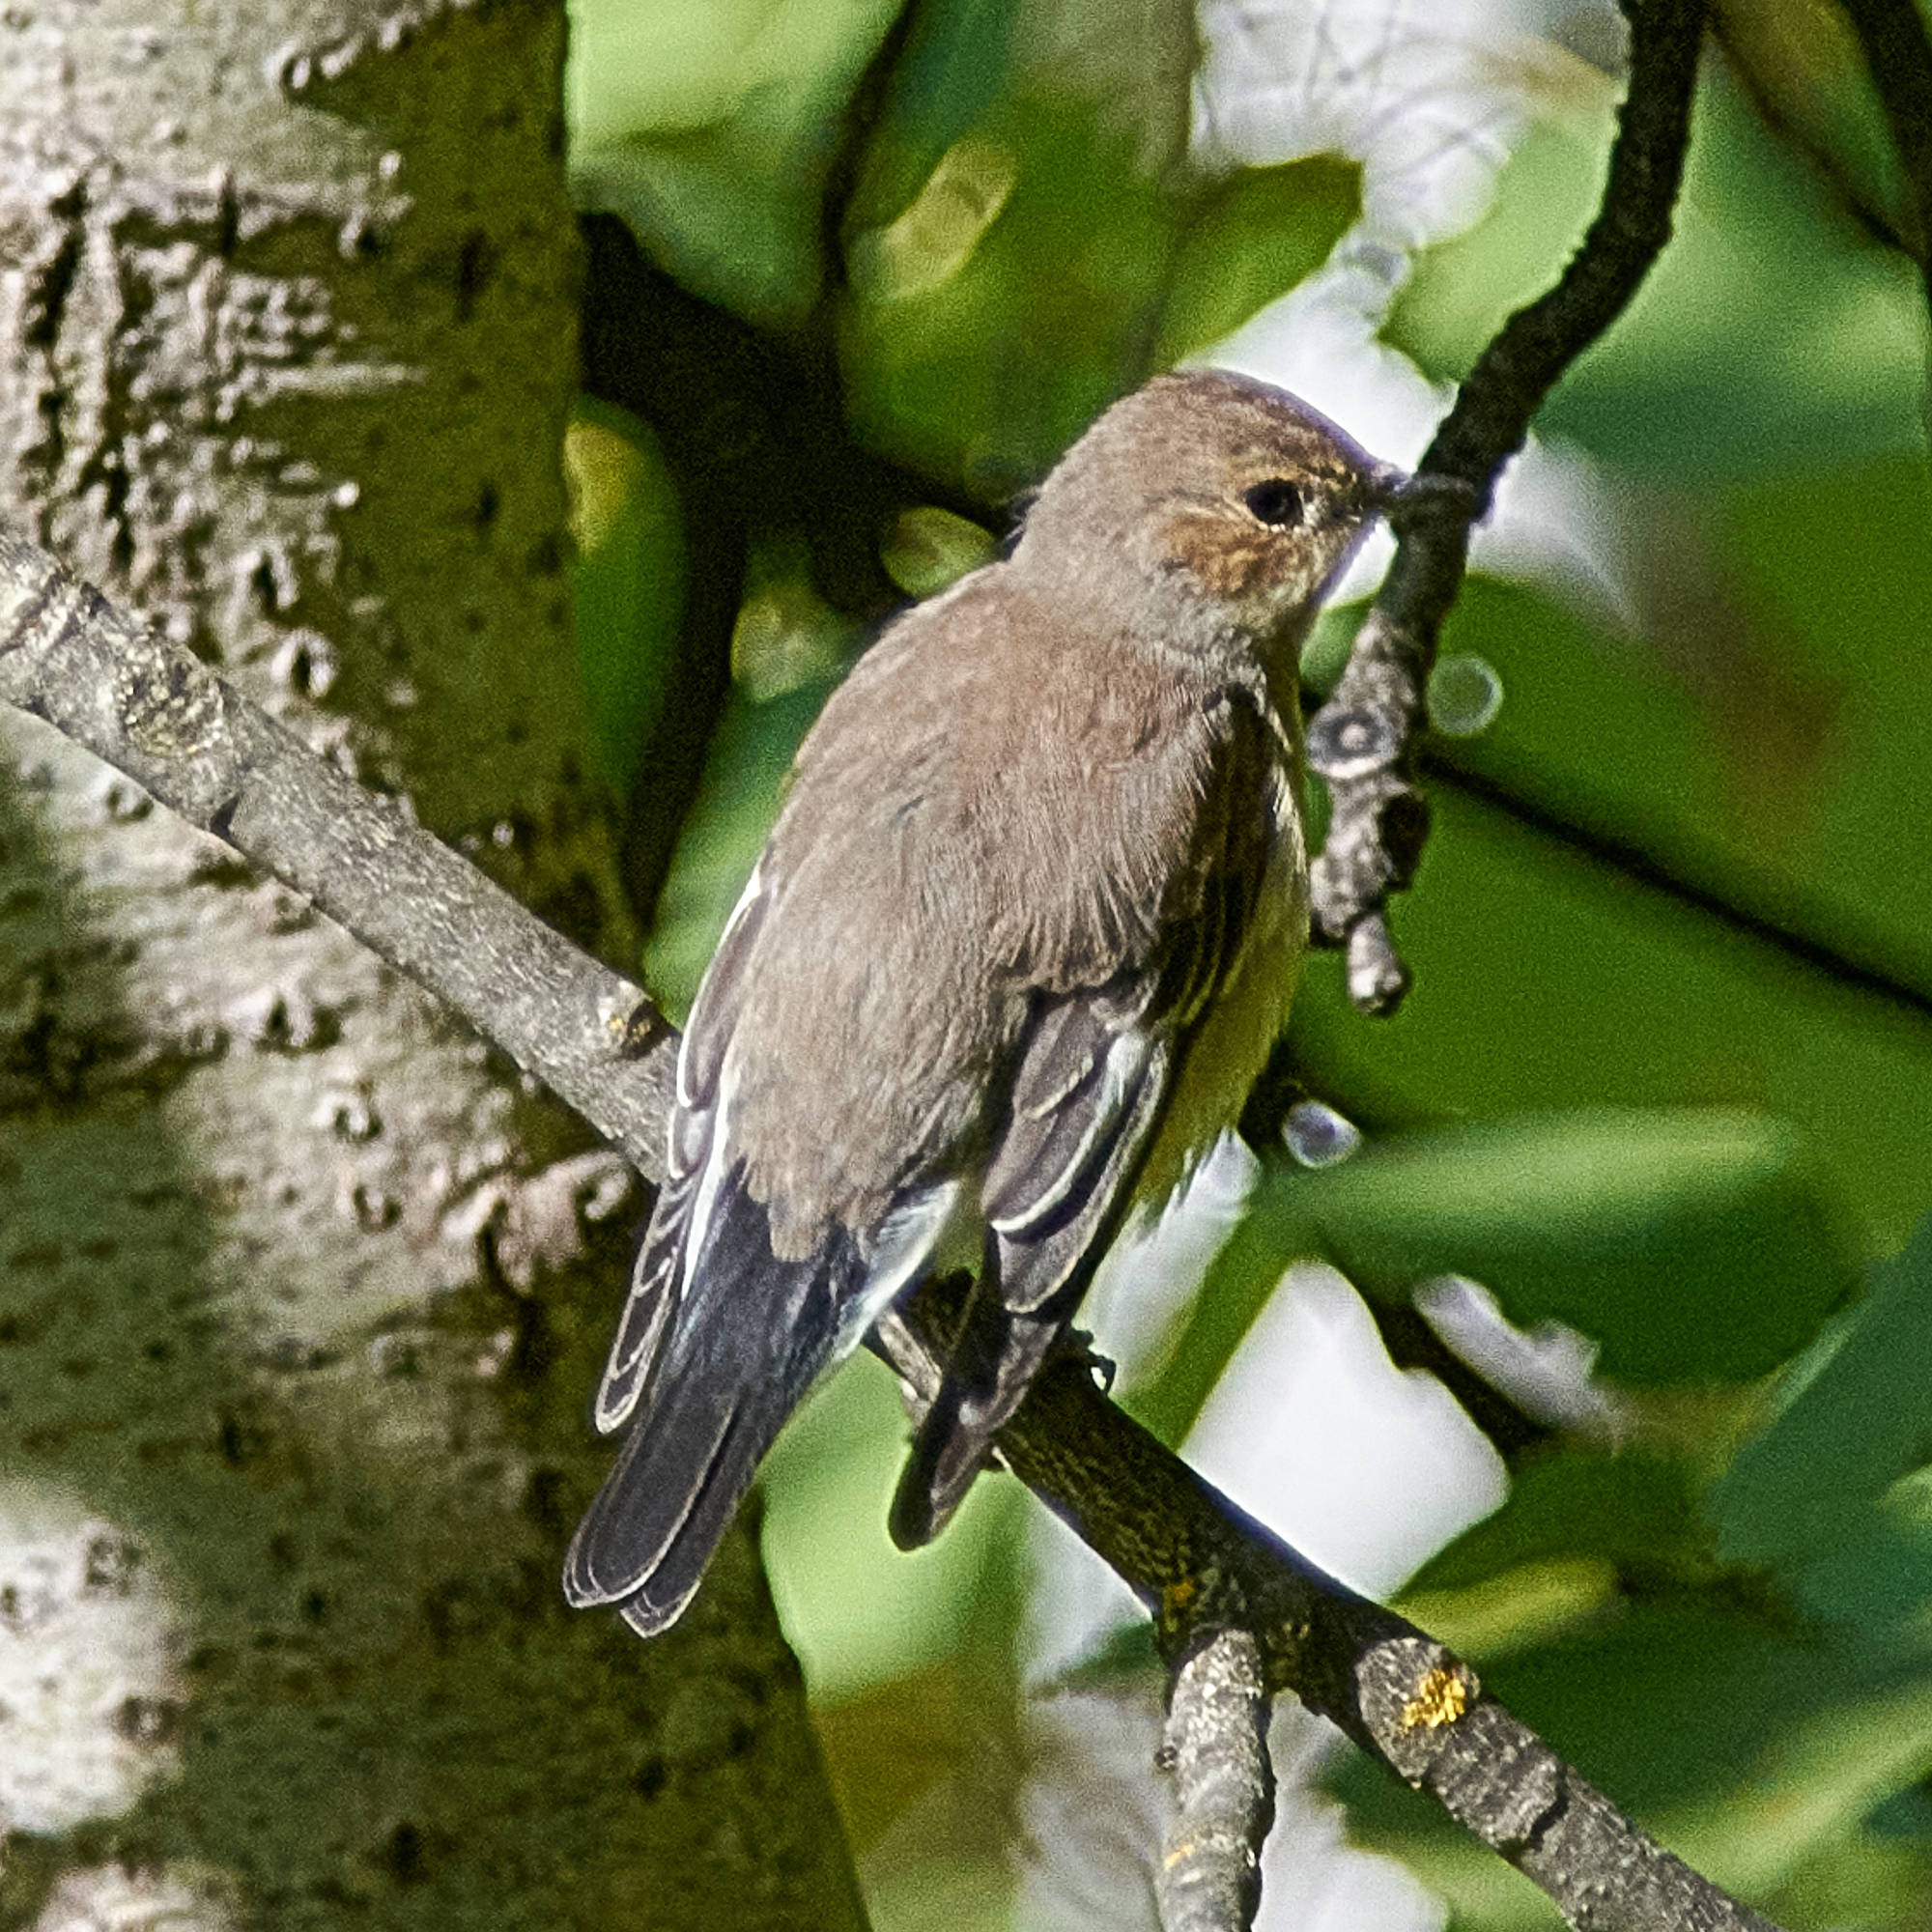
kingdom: Animalia
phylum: Chordata
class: Aves
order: Passeriformes
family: Muscicapidae
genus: Ficedula
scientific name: Ficedula hypoleuca
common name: European pied flycatcher
